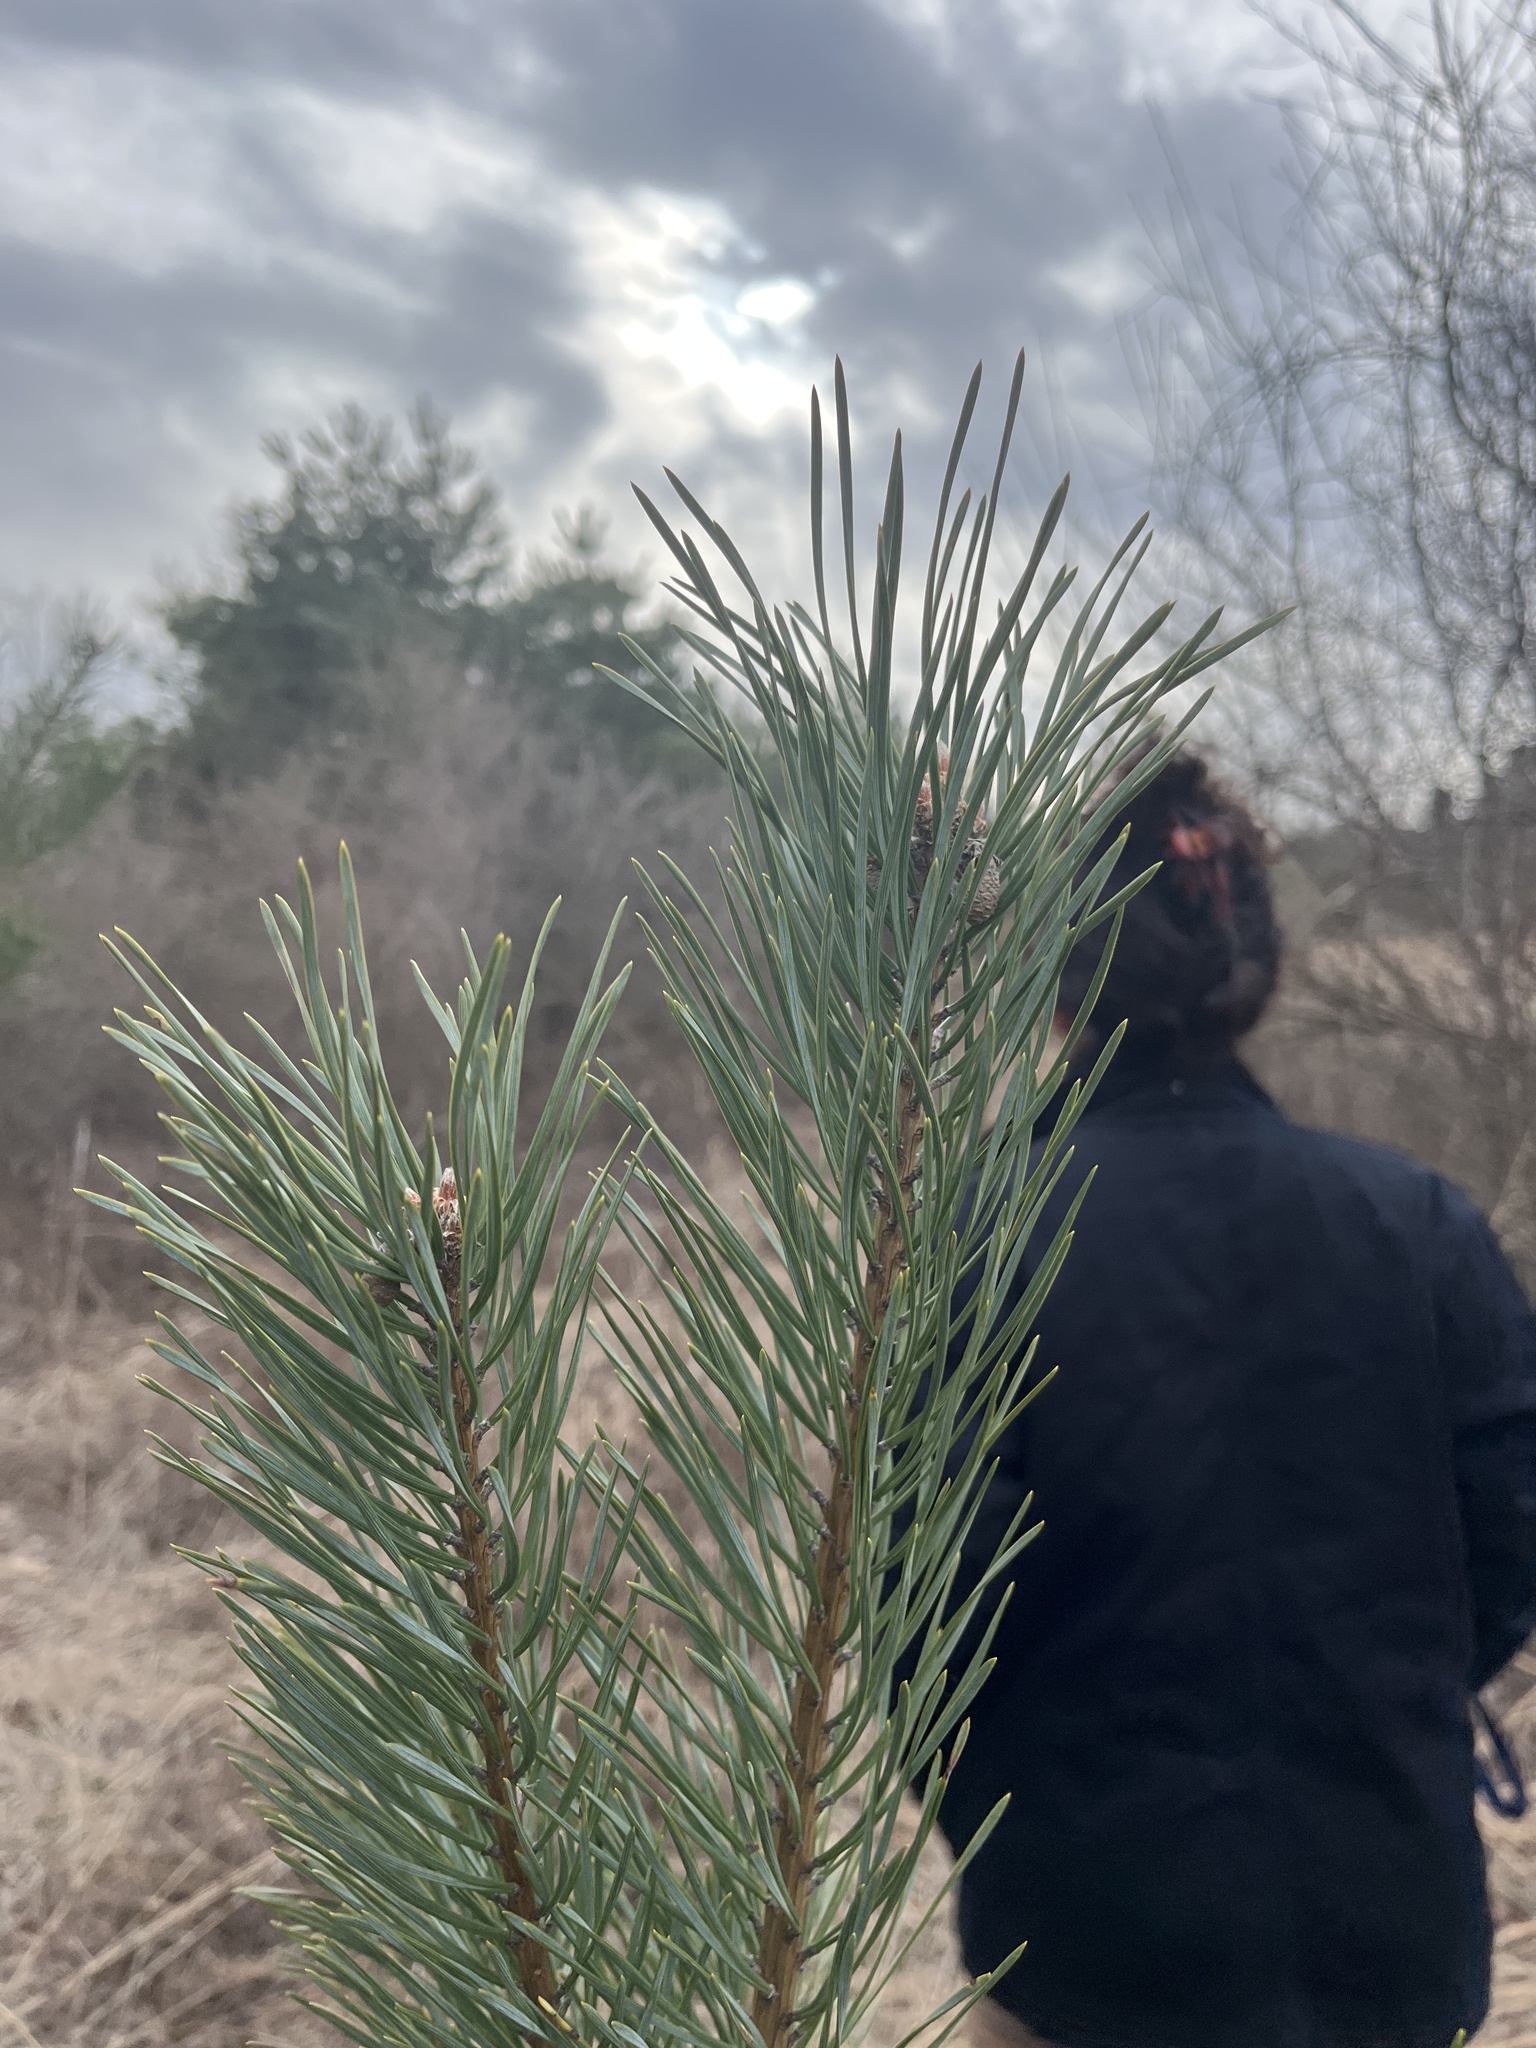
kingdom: Plantae
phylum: Tracheophyta
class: Pinopsida
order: Pinales
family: Pinaceae
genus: Pinus
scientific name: Pinus sylvestris
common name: Scots pine
